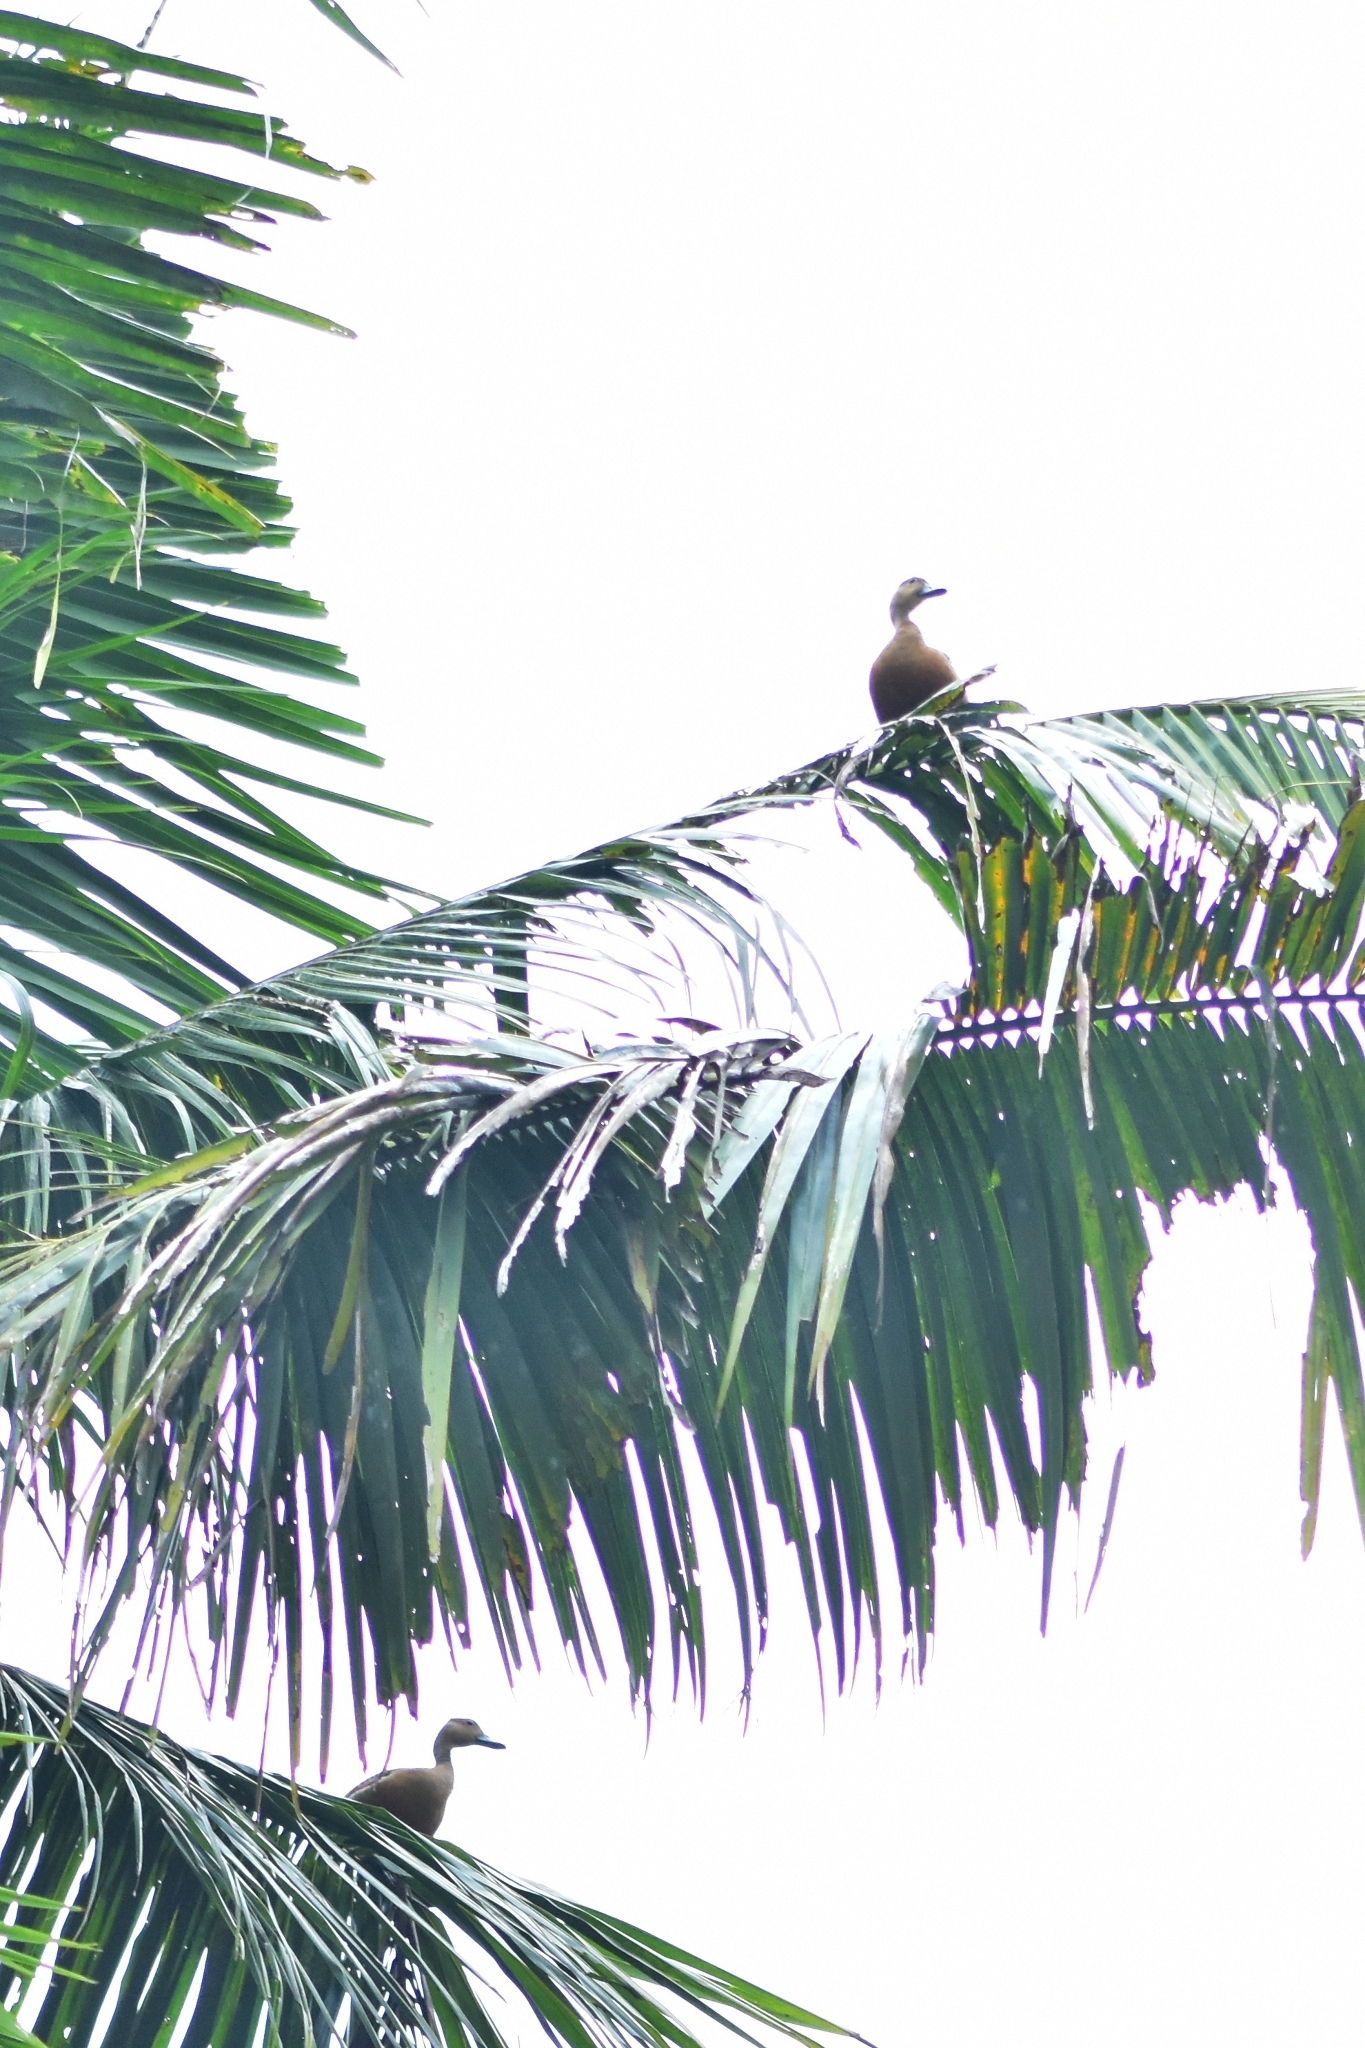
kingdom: Animalia
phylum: Chordata
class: Aves
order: Anseriformes
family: Anatidae
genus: Dendrocygna
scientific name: Dendrocygna javanica
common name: Lesser whistling-duck
